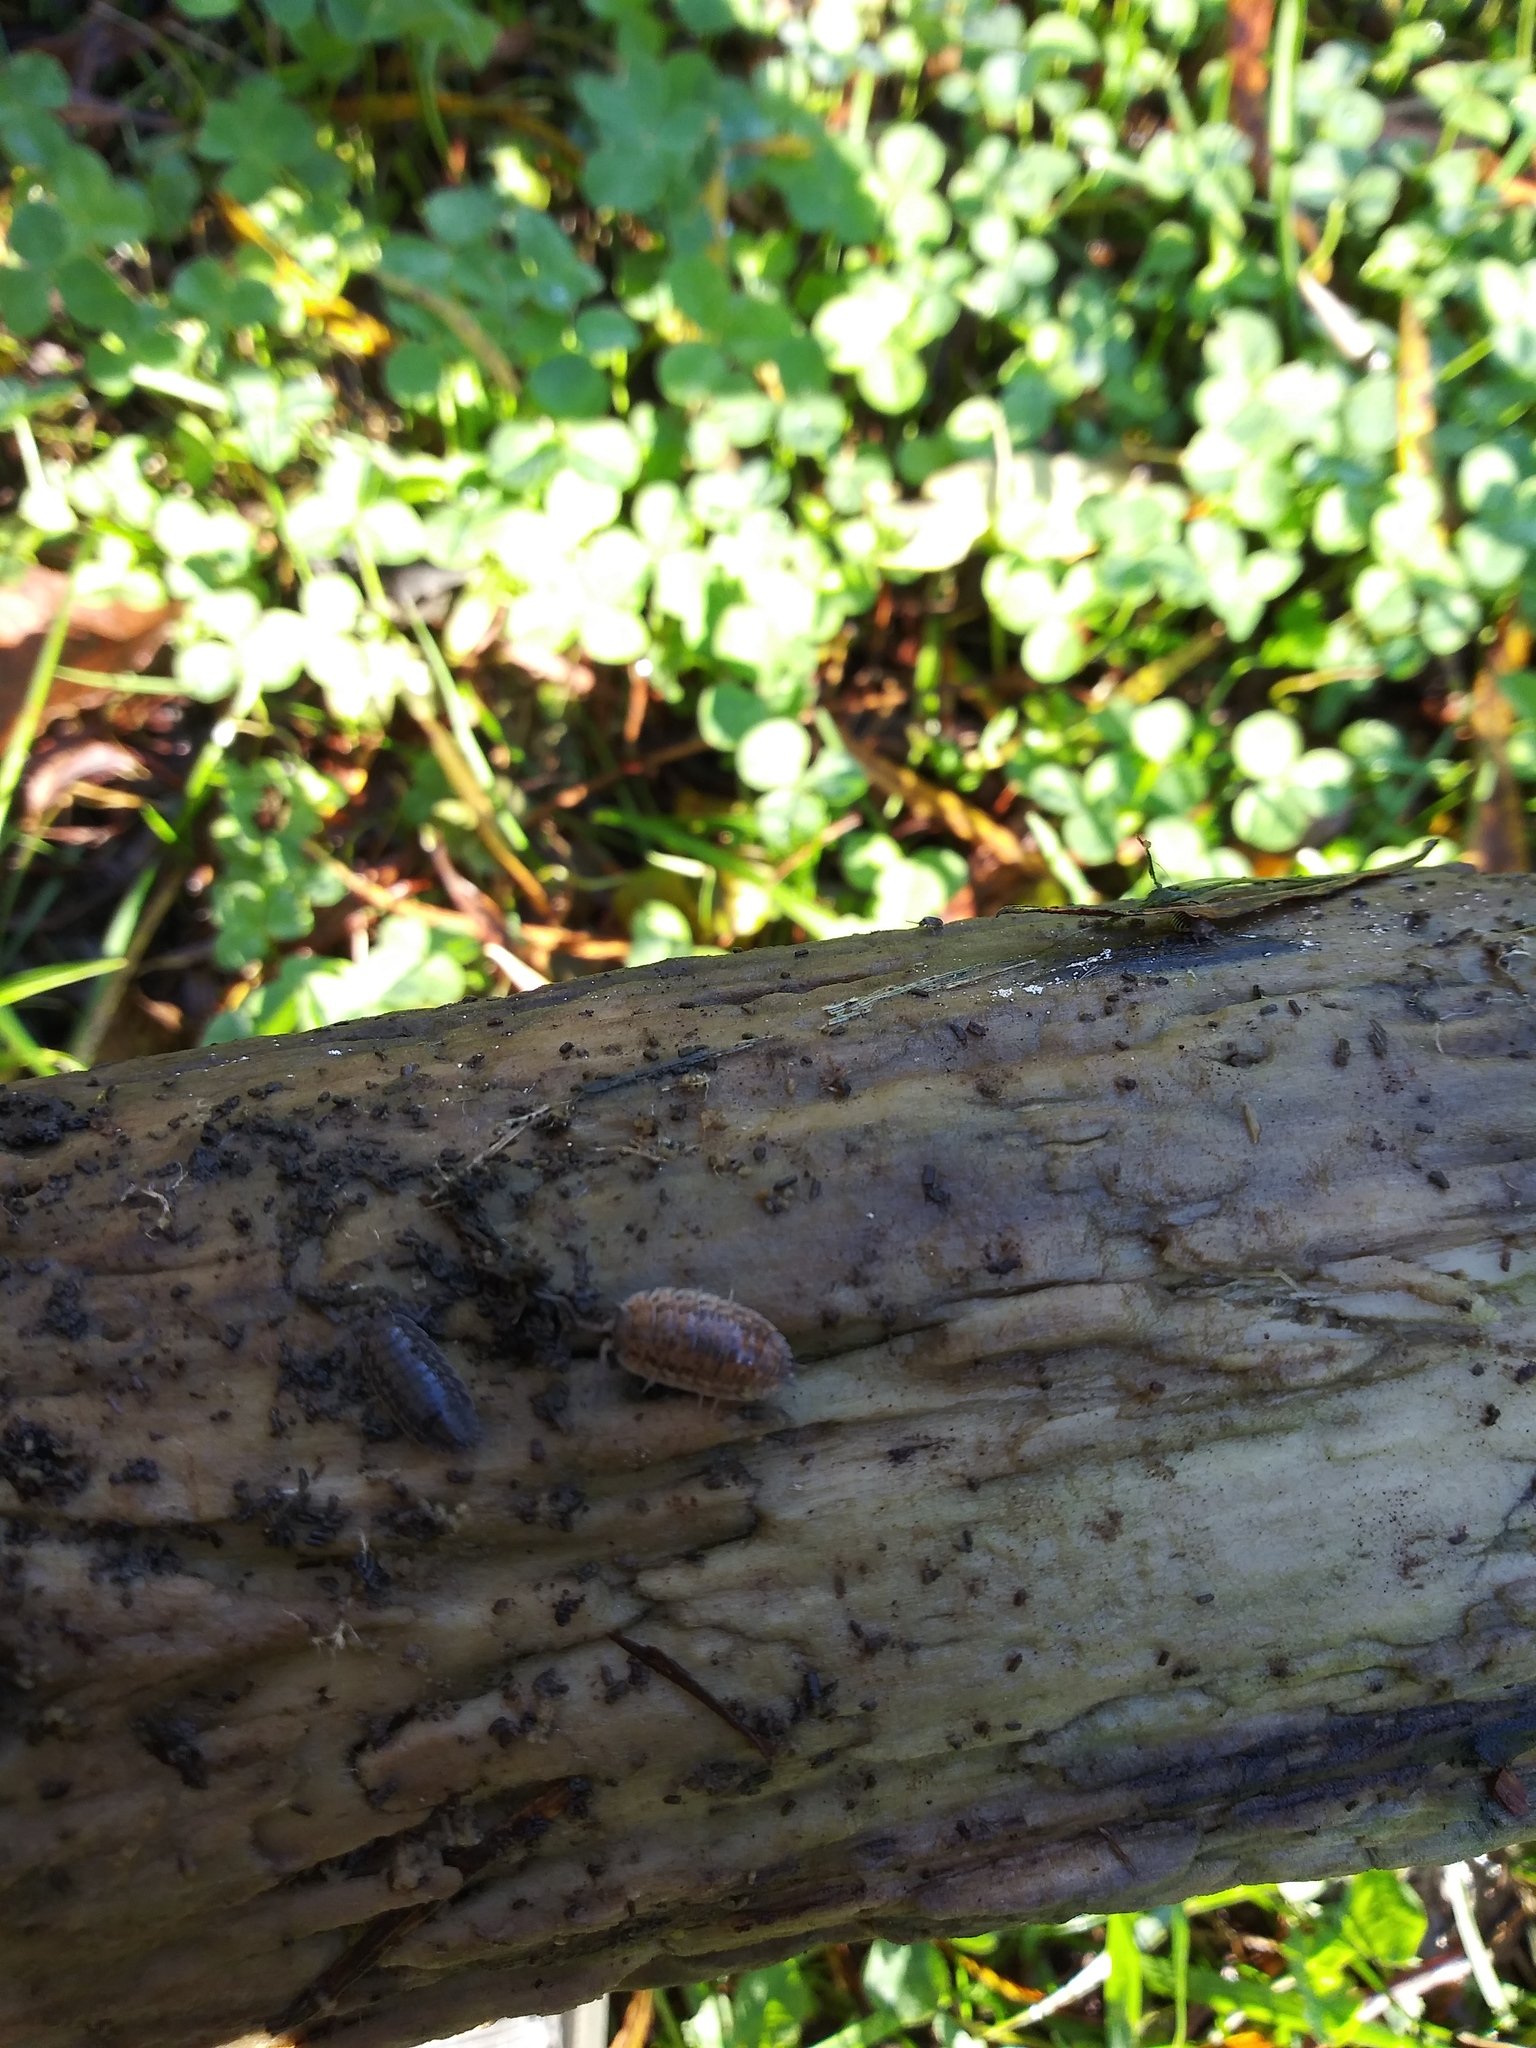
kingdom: Animalia
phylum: Arthropoda
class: Malacostraca
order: Isopoda
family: Trachelipodidae
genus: Trachelipus
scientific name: Trachelipus rathkii
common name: Isopod
